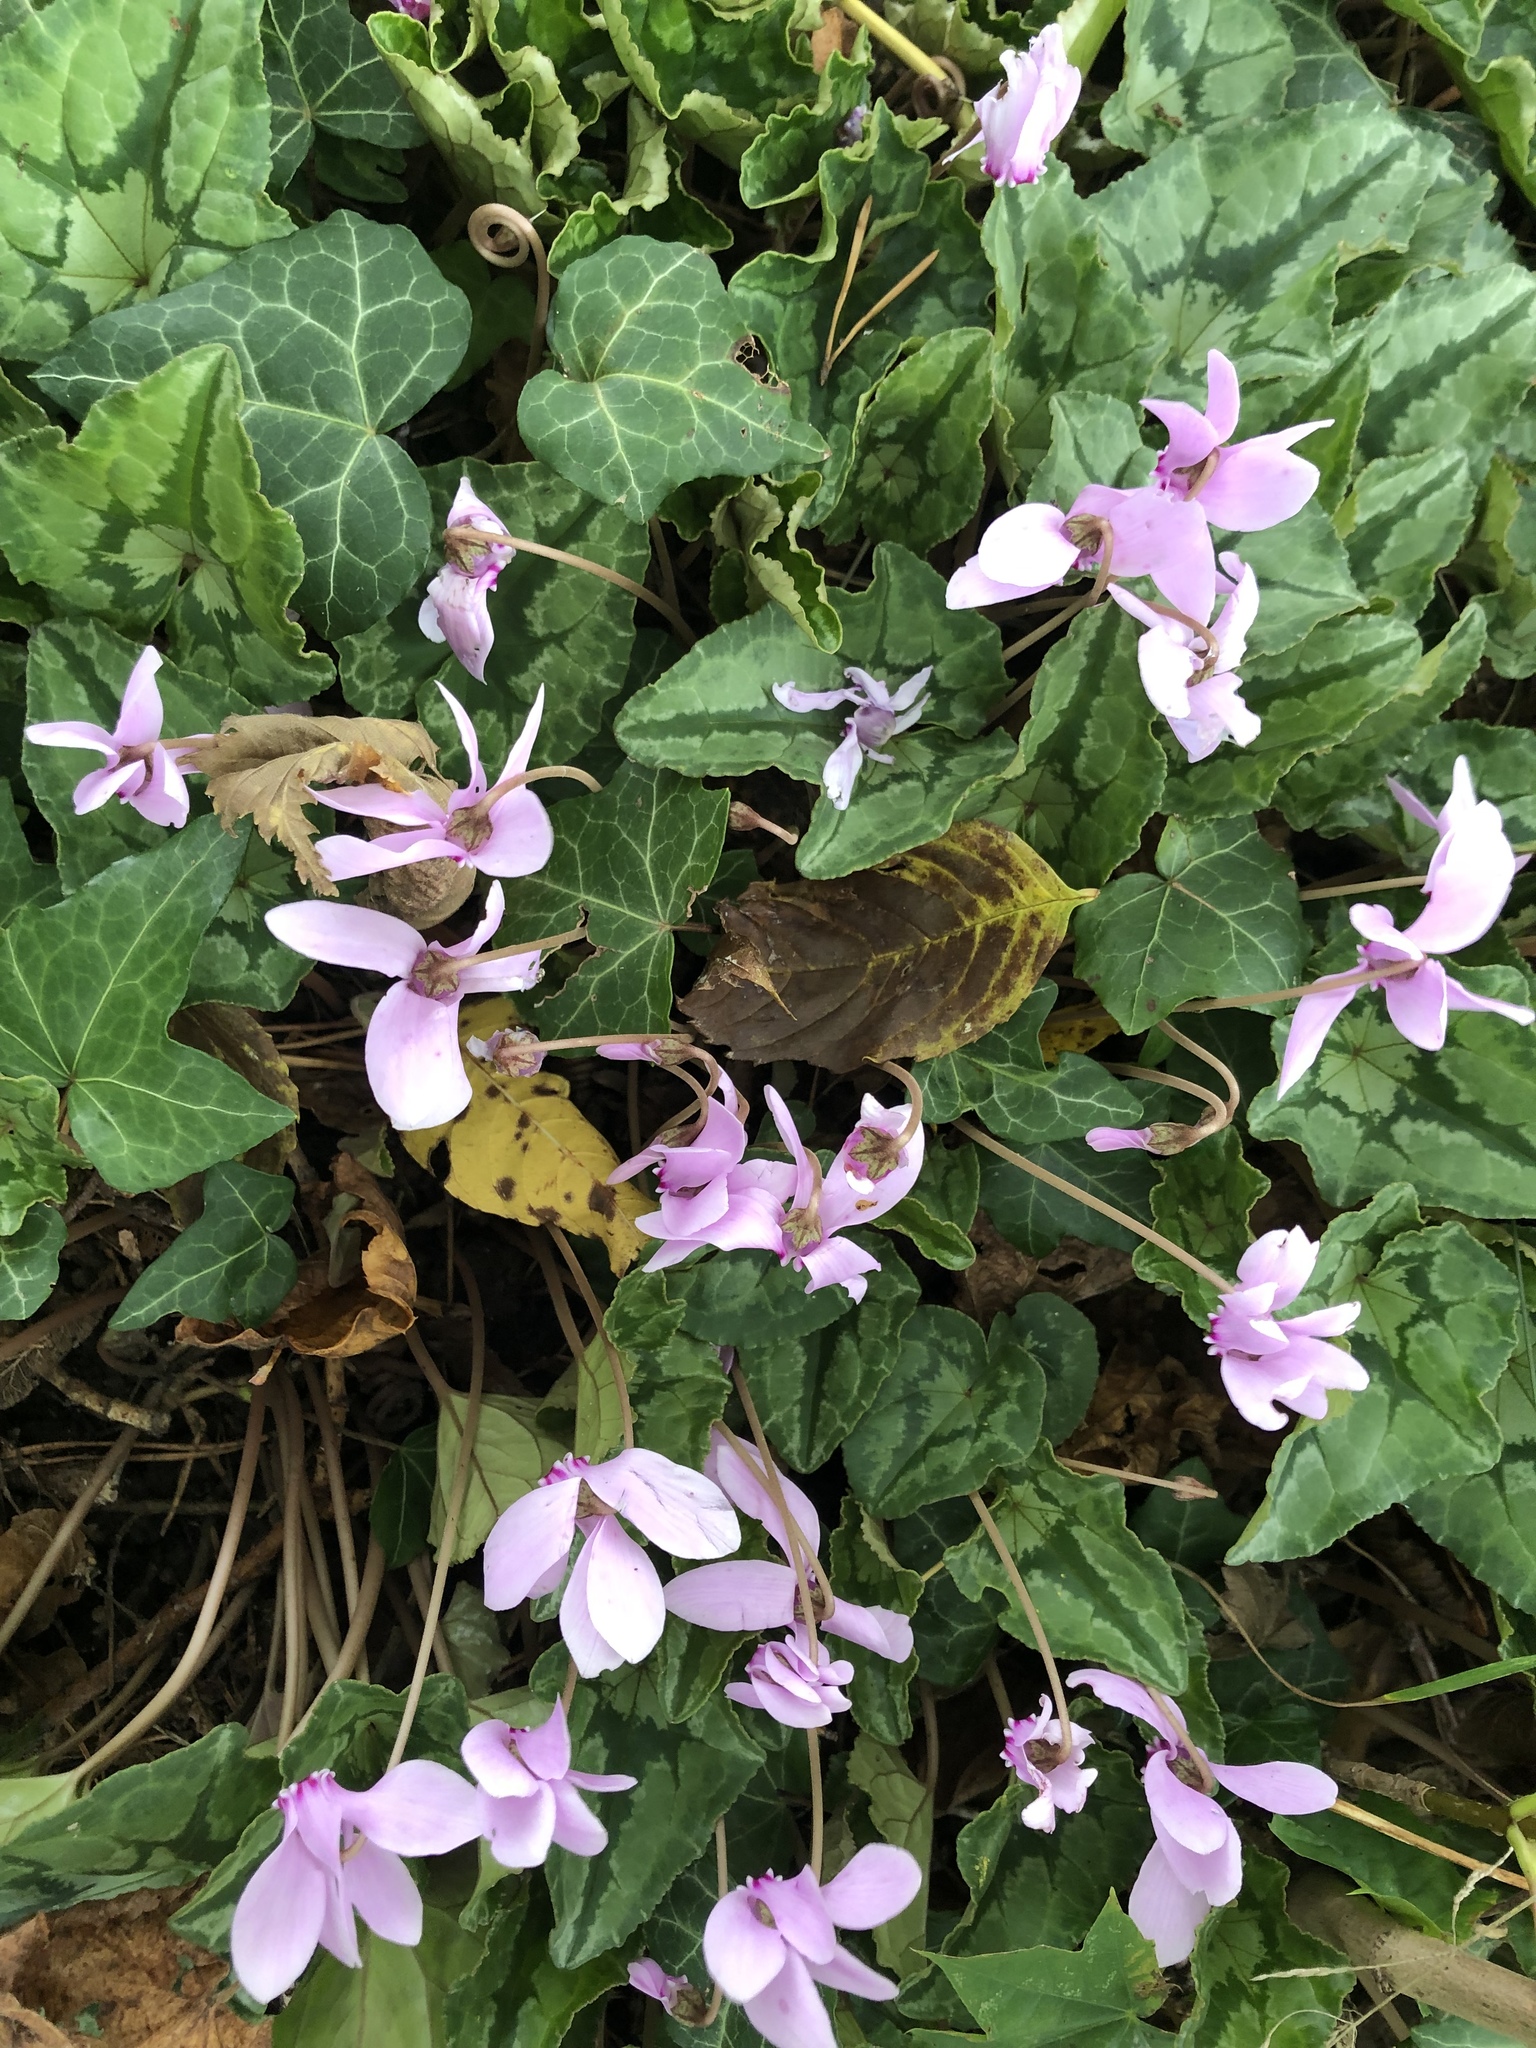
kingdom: Plantae
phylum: Tracheophyta
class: Magnoliopsida
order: Ericales
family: Primulaceae
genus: Cyclamen
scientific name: Cyclamen hederifolium
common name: Sowbread
